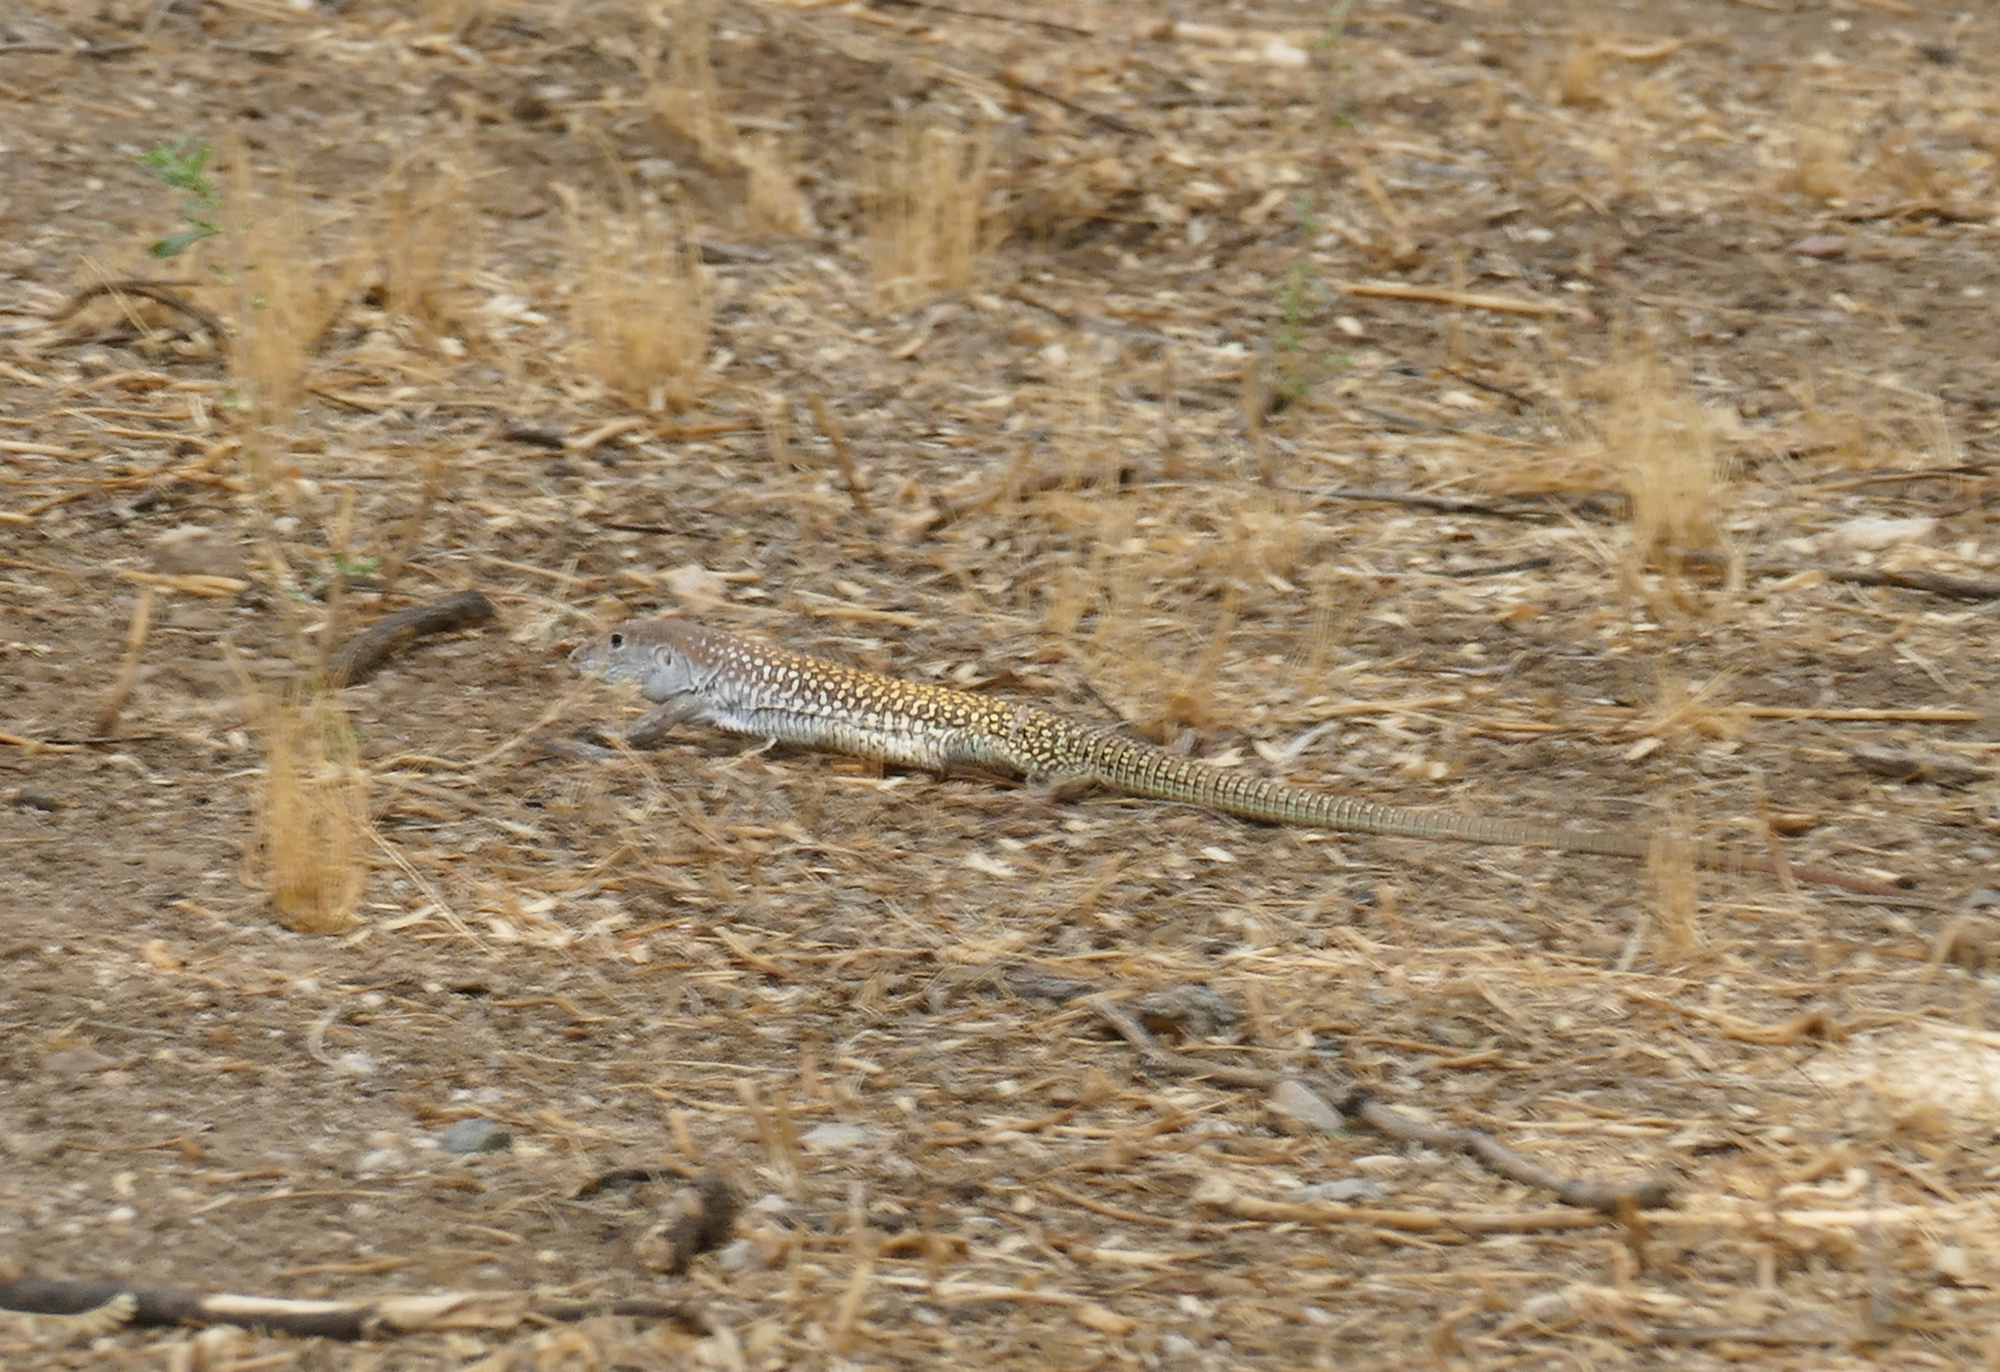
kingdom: Animalia
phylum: Chordata
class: Squamata
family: Teiidae
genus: Aspidoscelis
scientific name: Aspidoscelis stictogrammus
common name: Giant spotted whiptail
